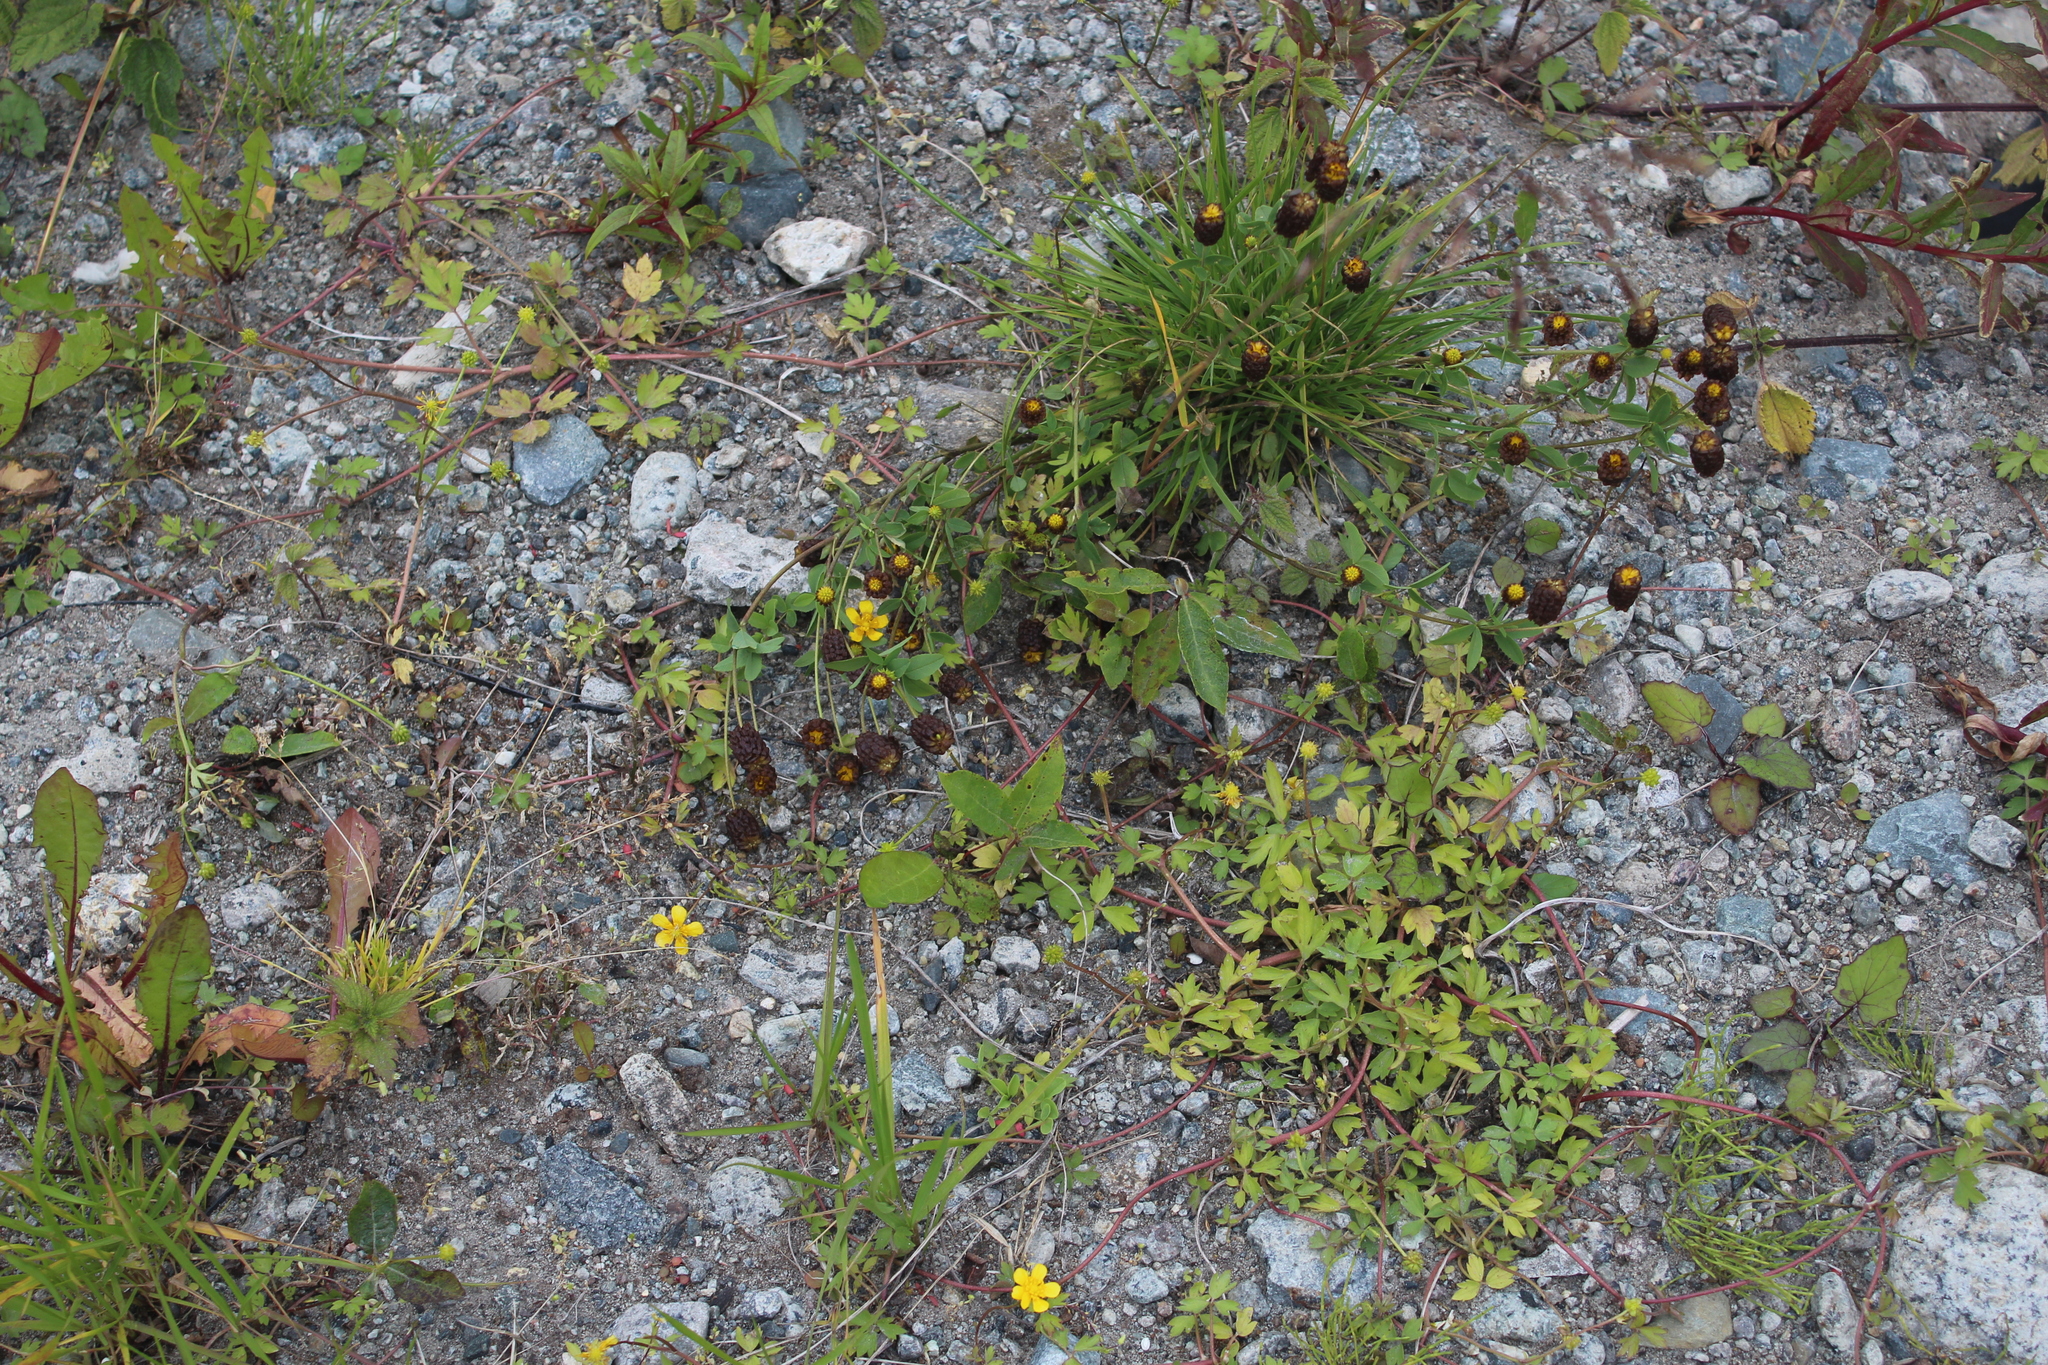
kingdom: Plantae
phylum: Tracheophyta
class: Magnoliopsida
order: Fabales
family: Fabaceae
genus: Trifolium
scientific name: Trifolium spadiceum
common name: Brown moor clover
